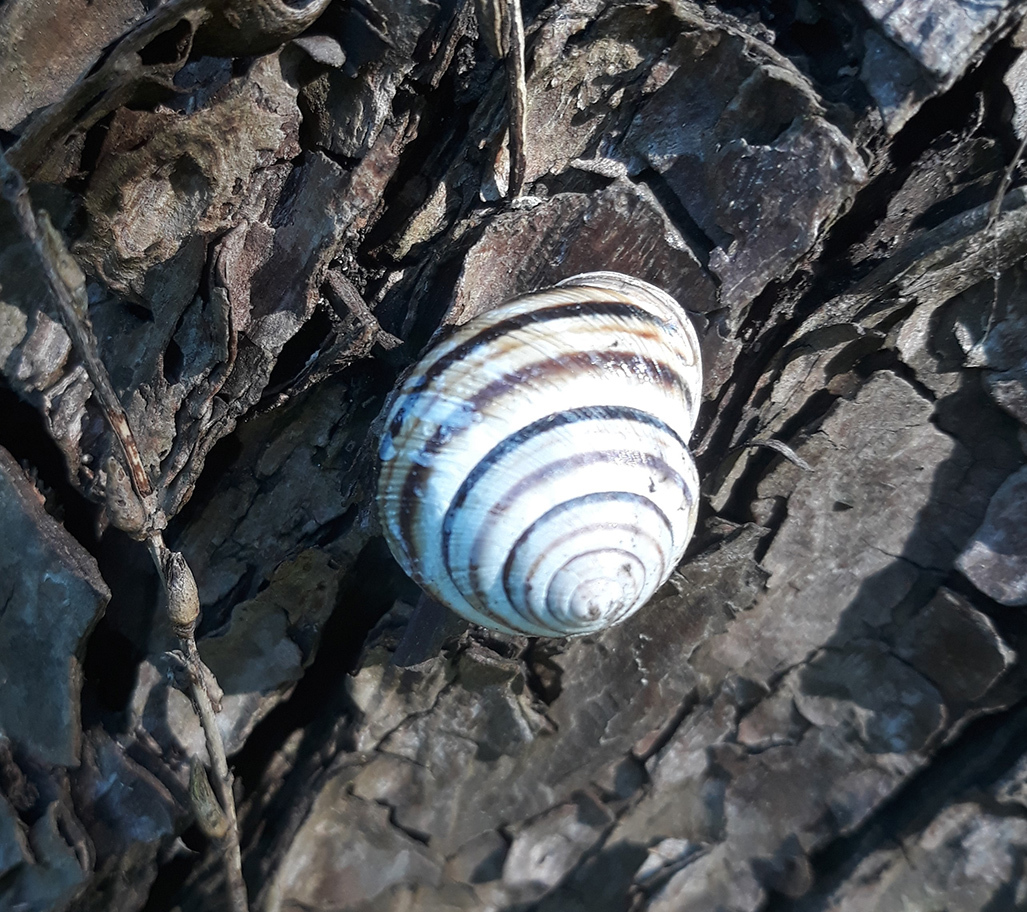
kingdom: Animalia
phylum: Mollusca
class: Gastropoda
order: Stylommatophora
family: Helicidae
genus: Caucasotachea
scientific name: Caucasotachea vindobonensis
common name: European helicid land snail
